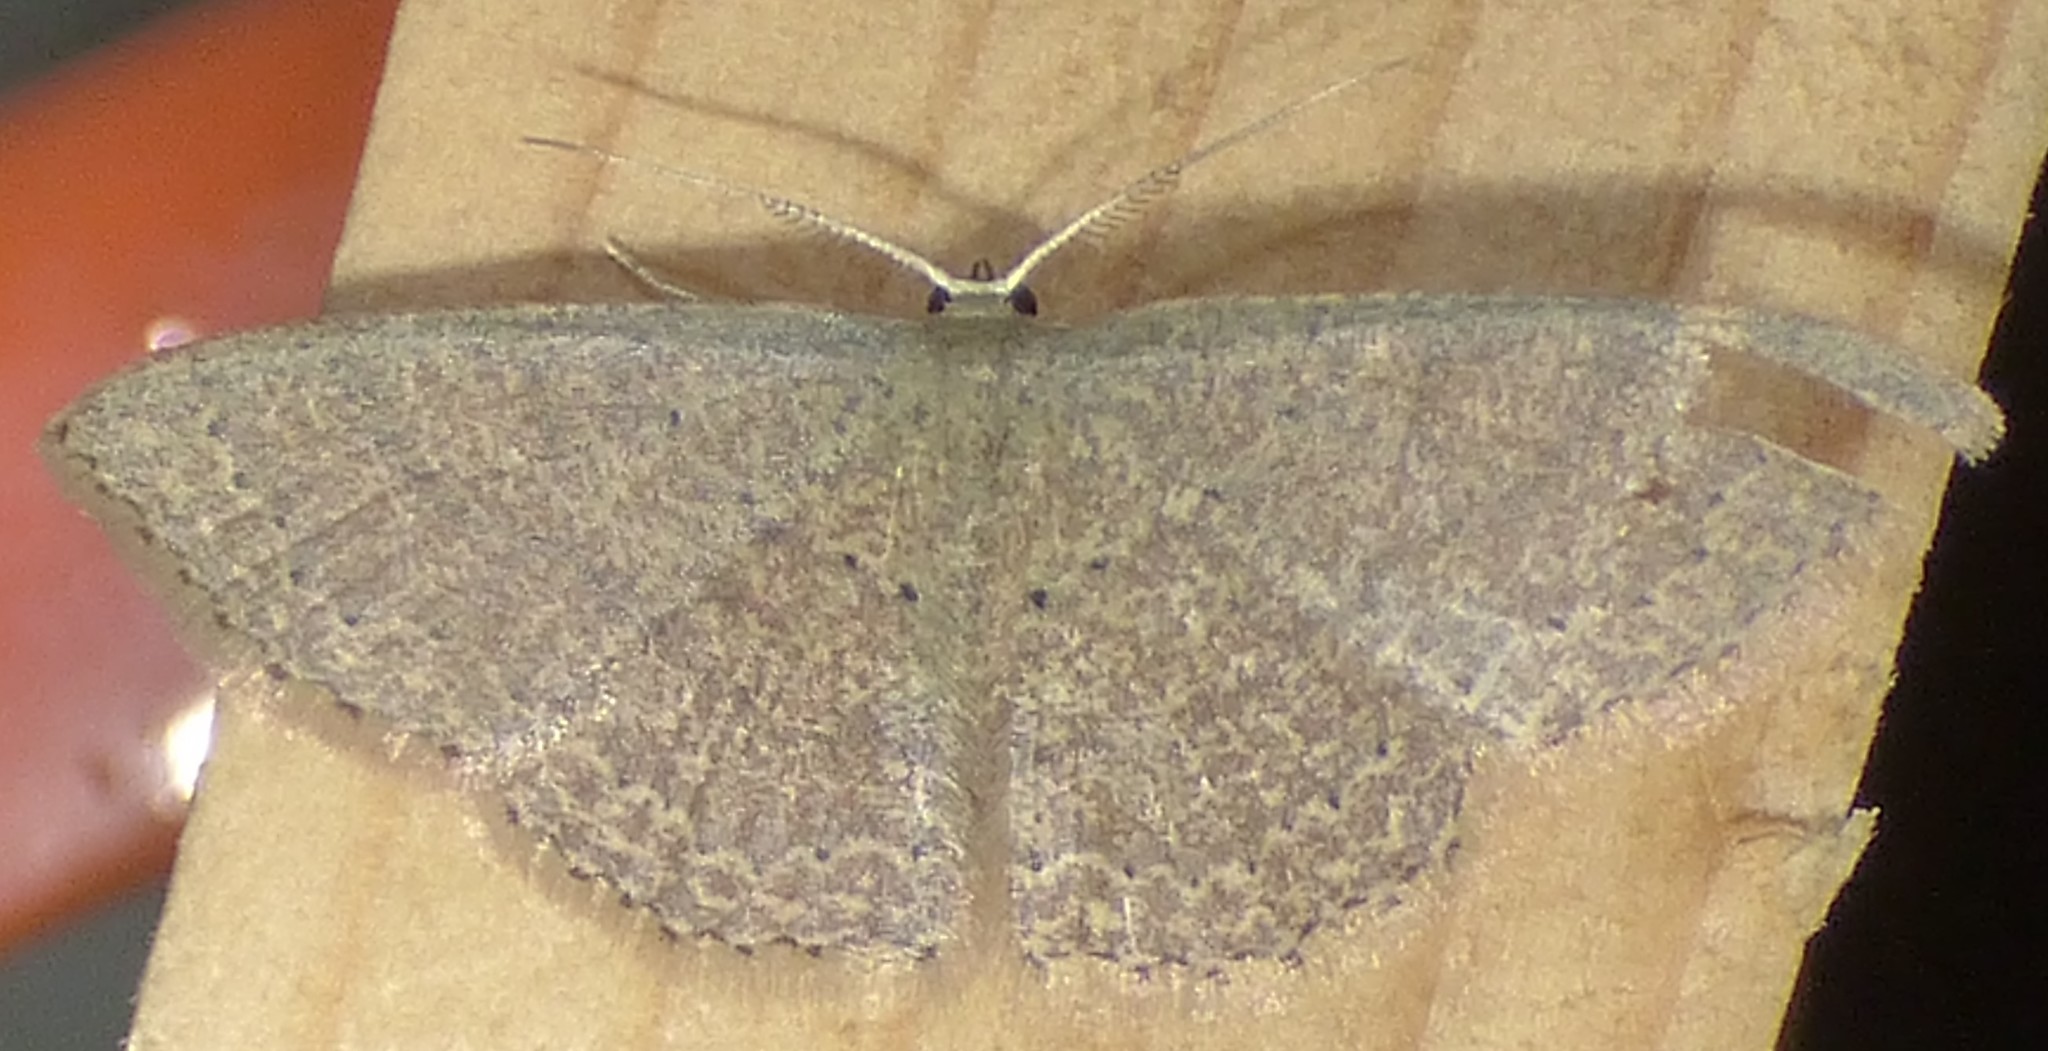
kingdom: Animalia
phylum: Arthropoda
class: Insecta
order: Lepidoptera
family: Geometridae
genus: Pleuroprucha
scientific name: Pleuroprucha insulsaria
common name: Common tan wave
